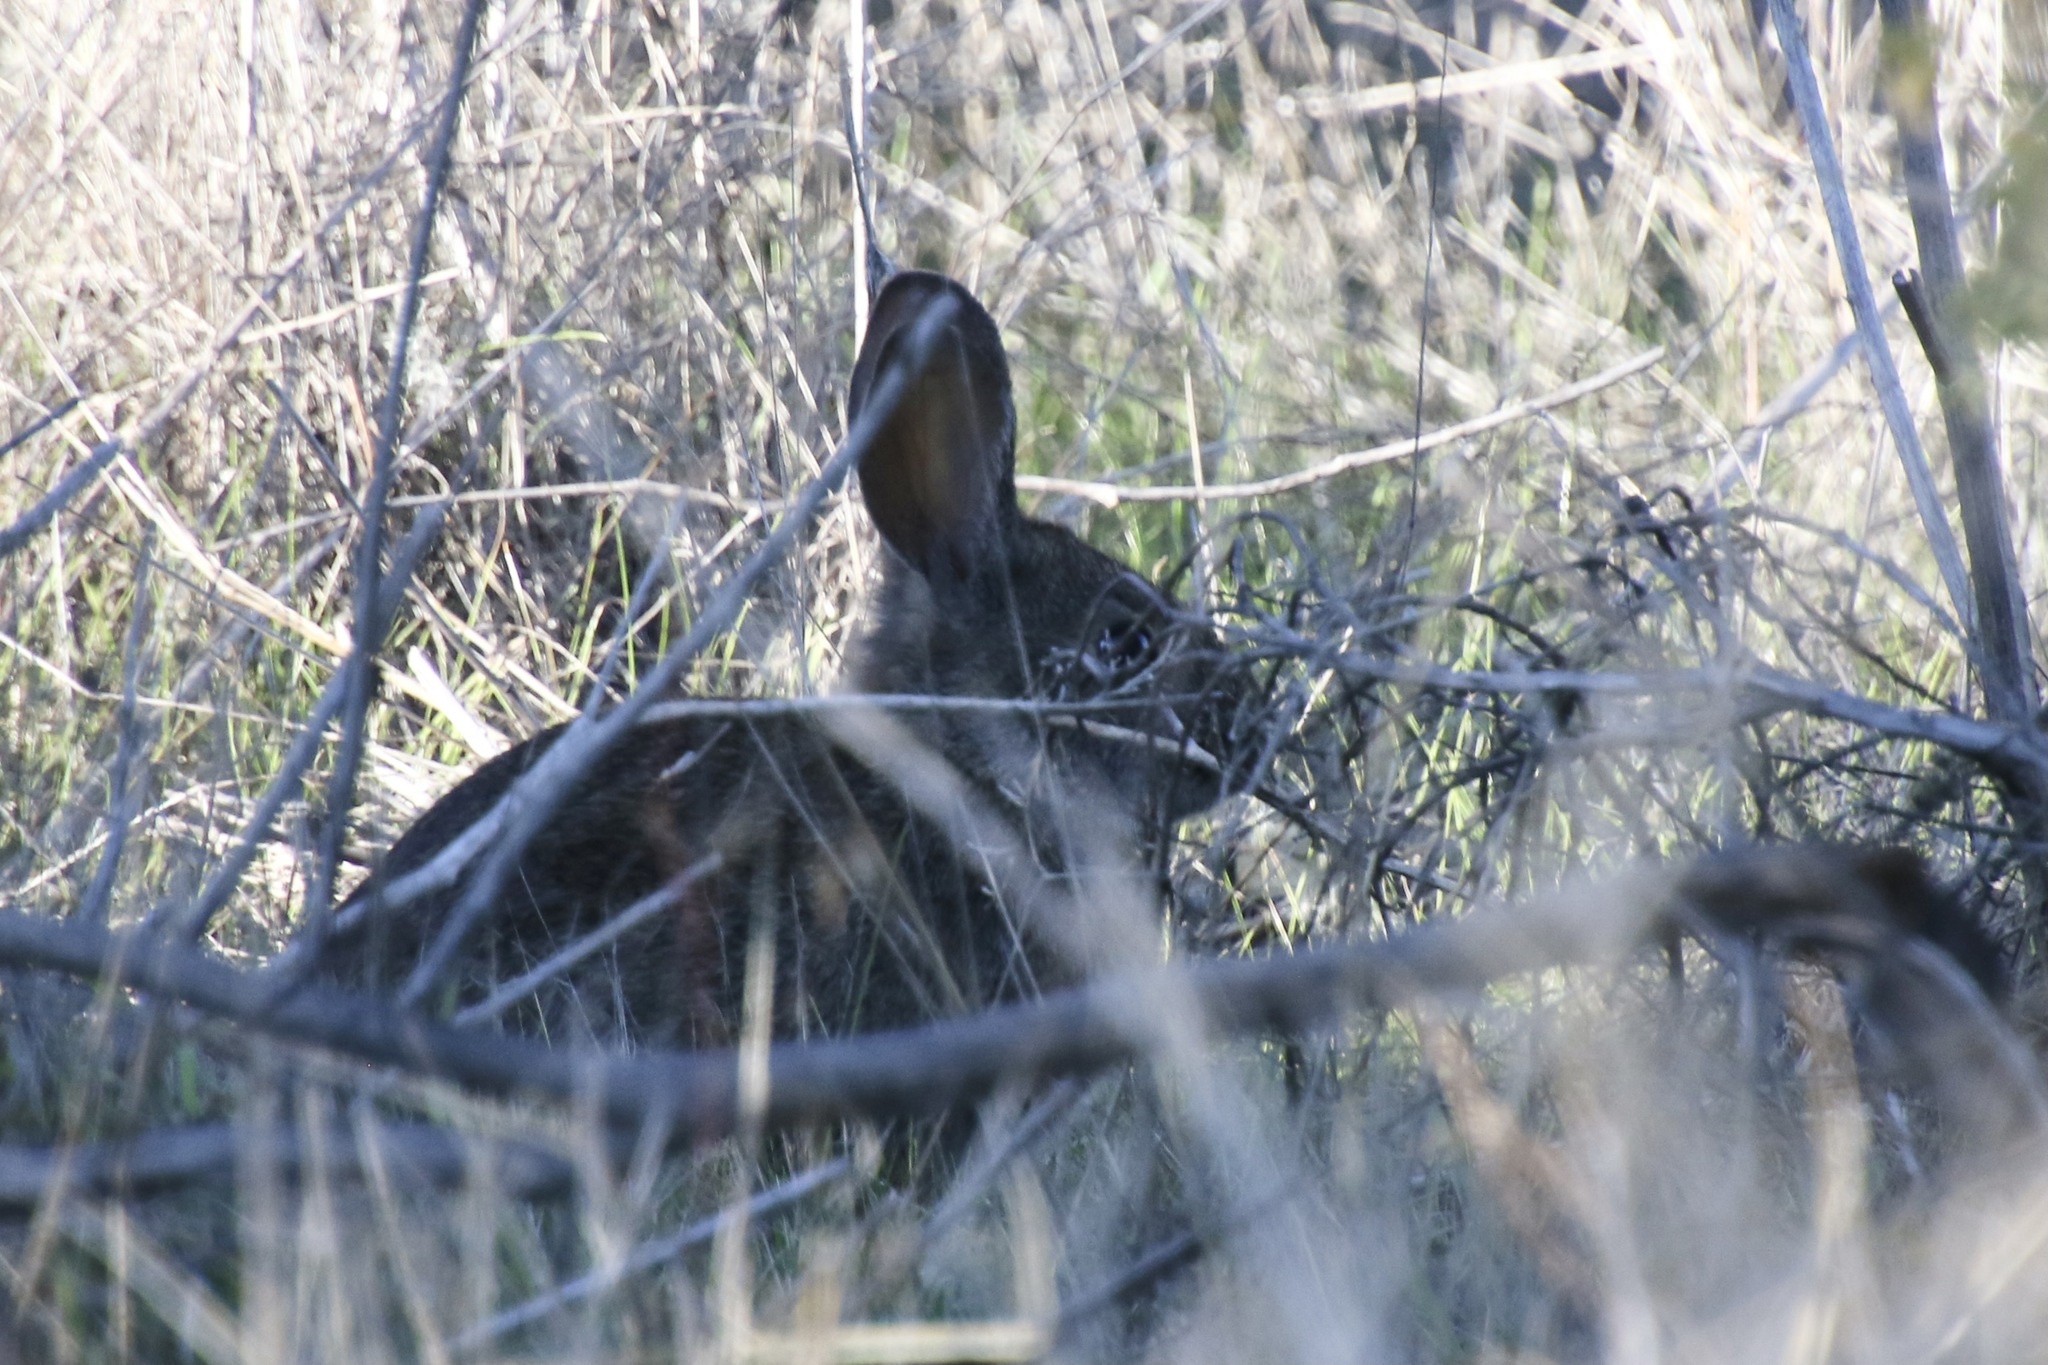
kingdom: Animalia
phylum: Chordata
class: Mammalia
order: Lagomorpha
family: Leporidae
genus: Sylvilagus
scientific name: Sylvilagus bachmani
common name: Brush rabbit
